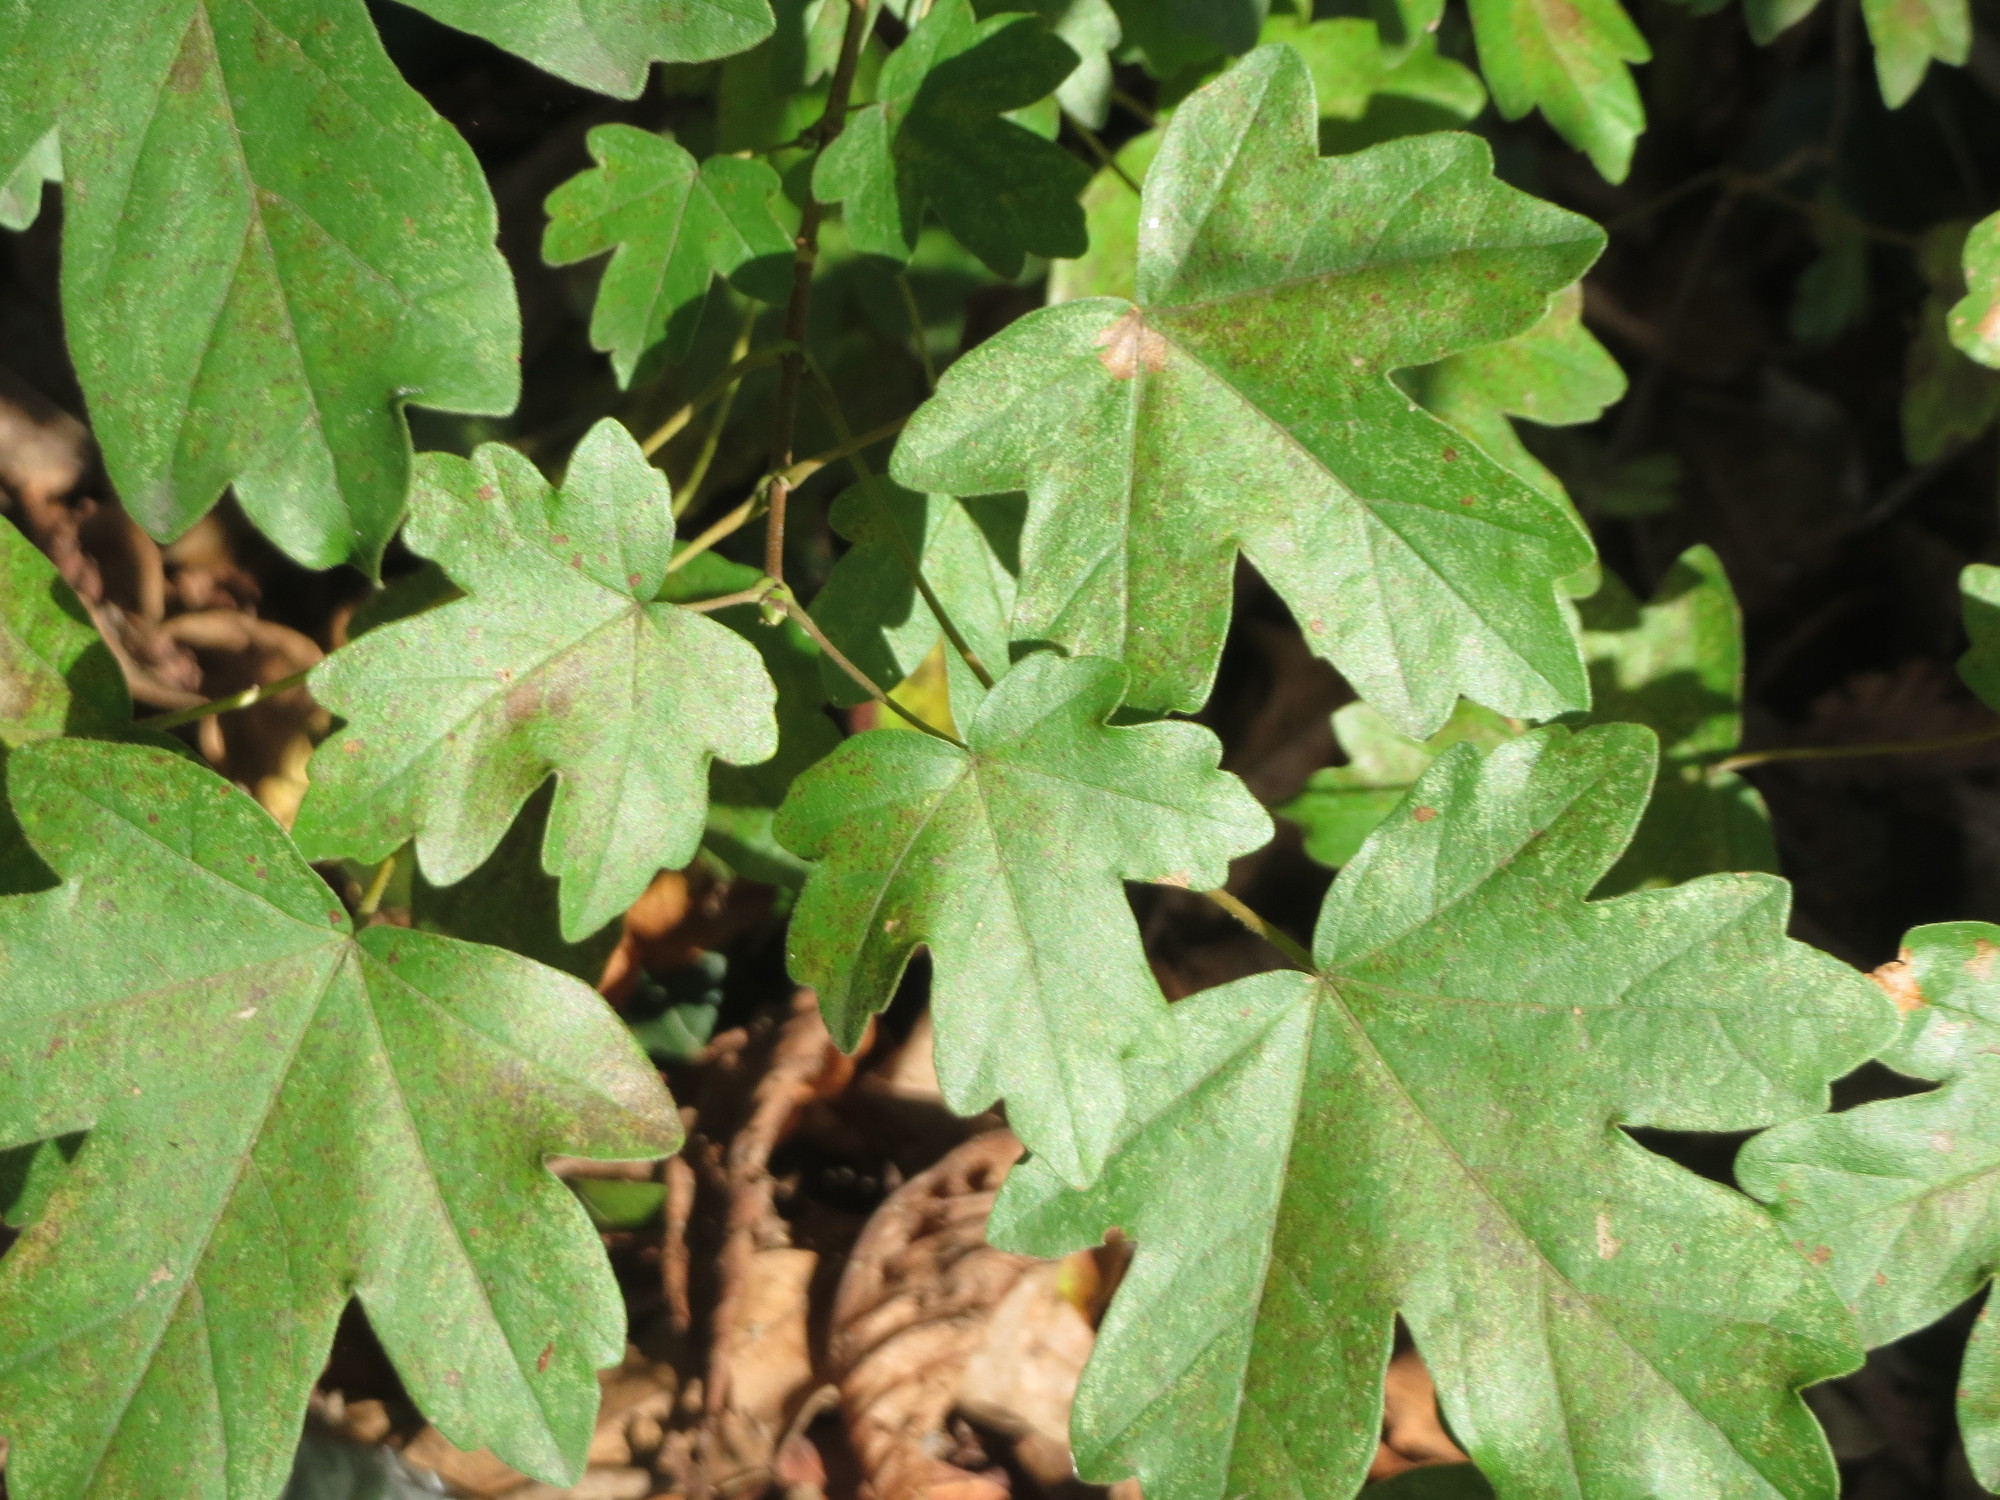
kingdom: Plantae
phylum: Tracheophyta
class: Magnoliopsida
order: Sapindales
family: Sapindaceae
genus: Acer
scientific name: Acer campestre
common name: Field maple
